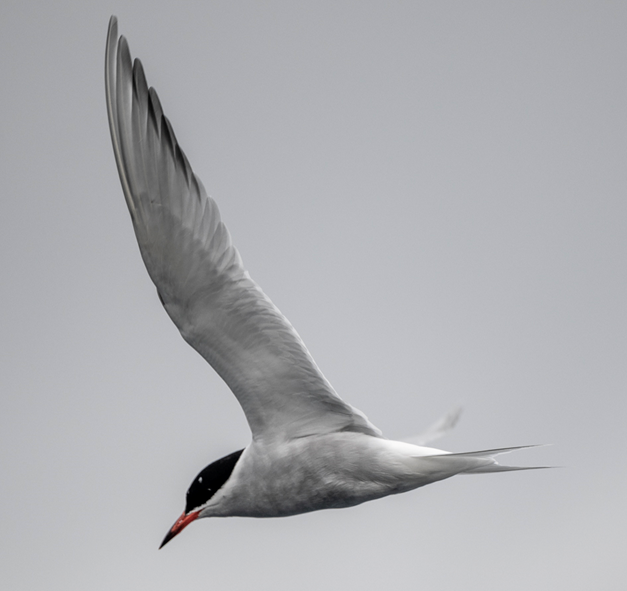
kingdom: Animalia
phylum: Chordata
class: Aves
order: Charadriiformes
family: Laridae
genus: Sterna
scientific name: Sterna vittata
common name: Antarctic tern
